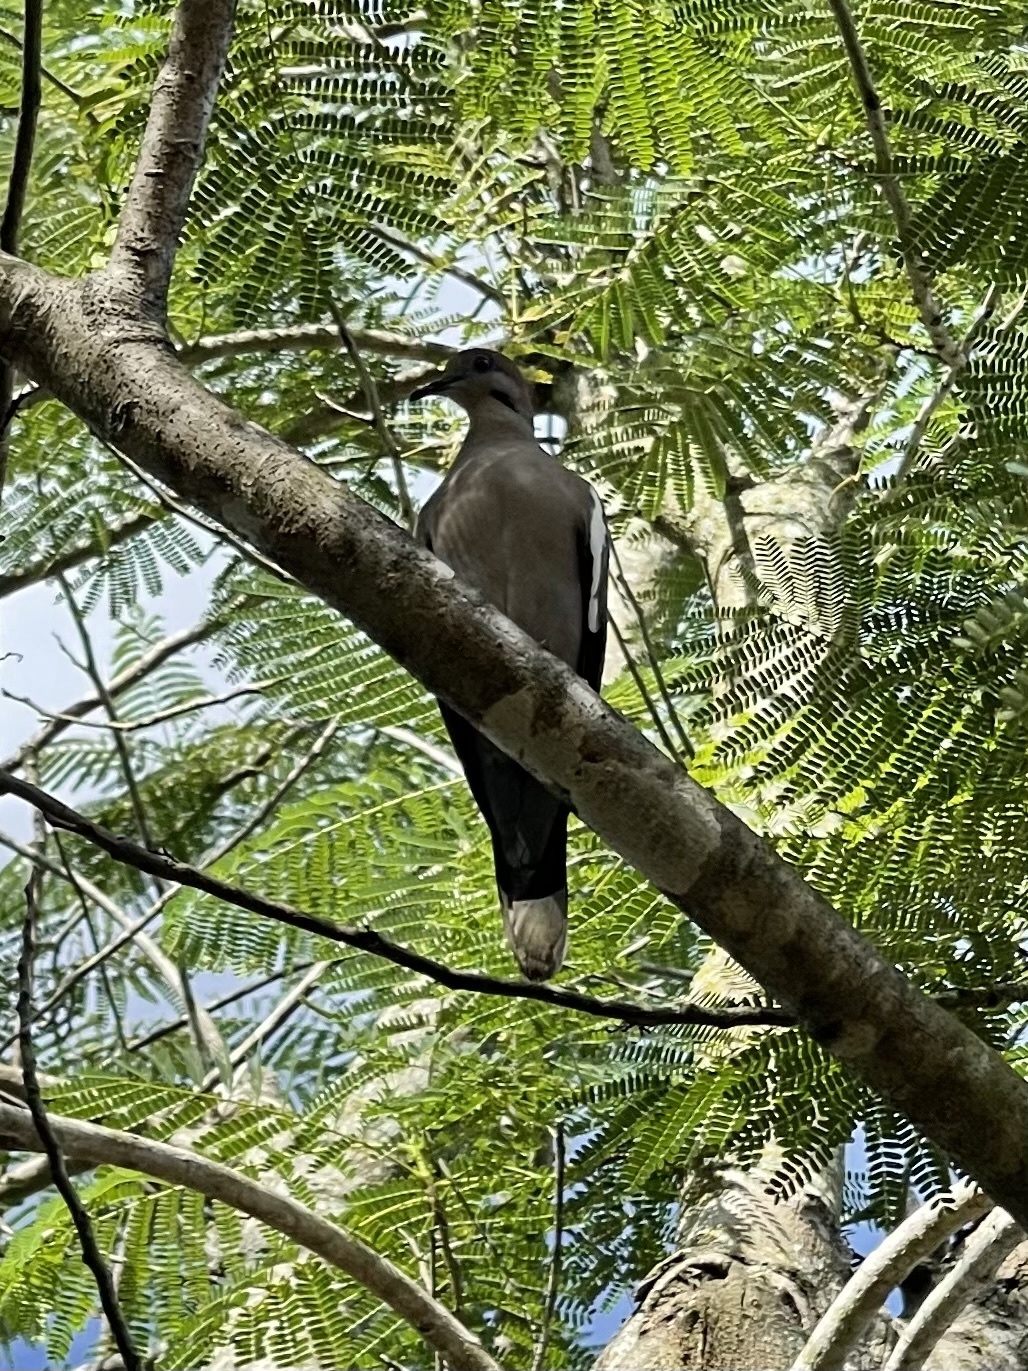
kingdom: Animalia
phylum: Chordata
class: Aves
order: Columbiformes
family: Columbidae
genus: Zenaida
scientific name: Zenaida asiatica
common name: White-winged dove
